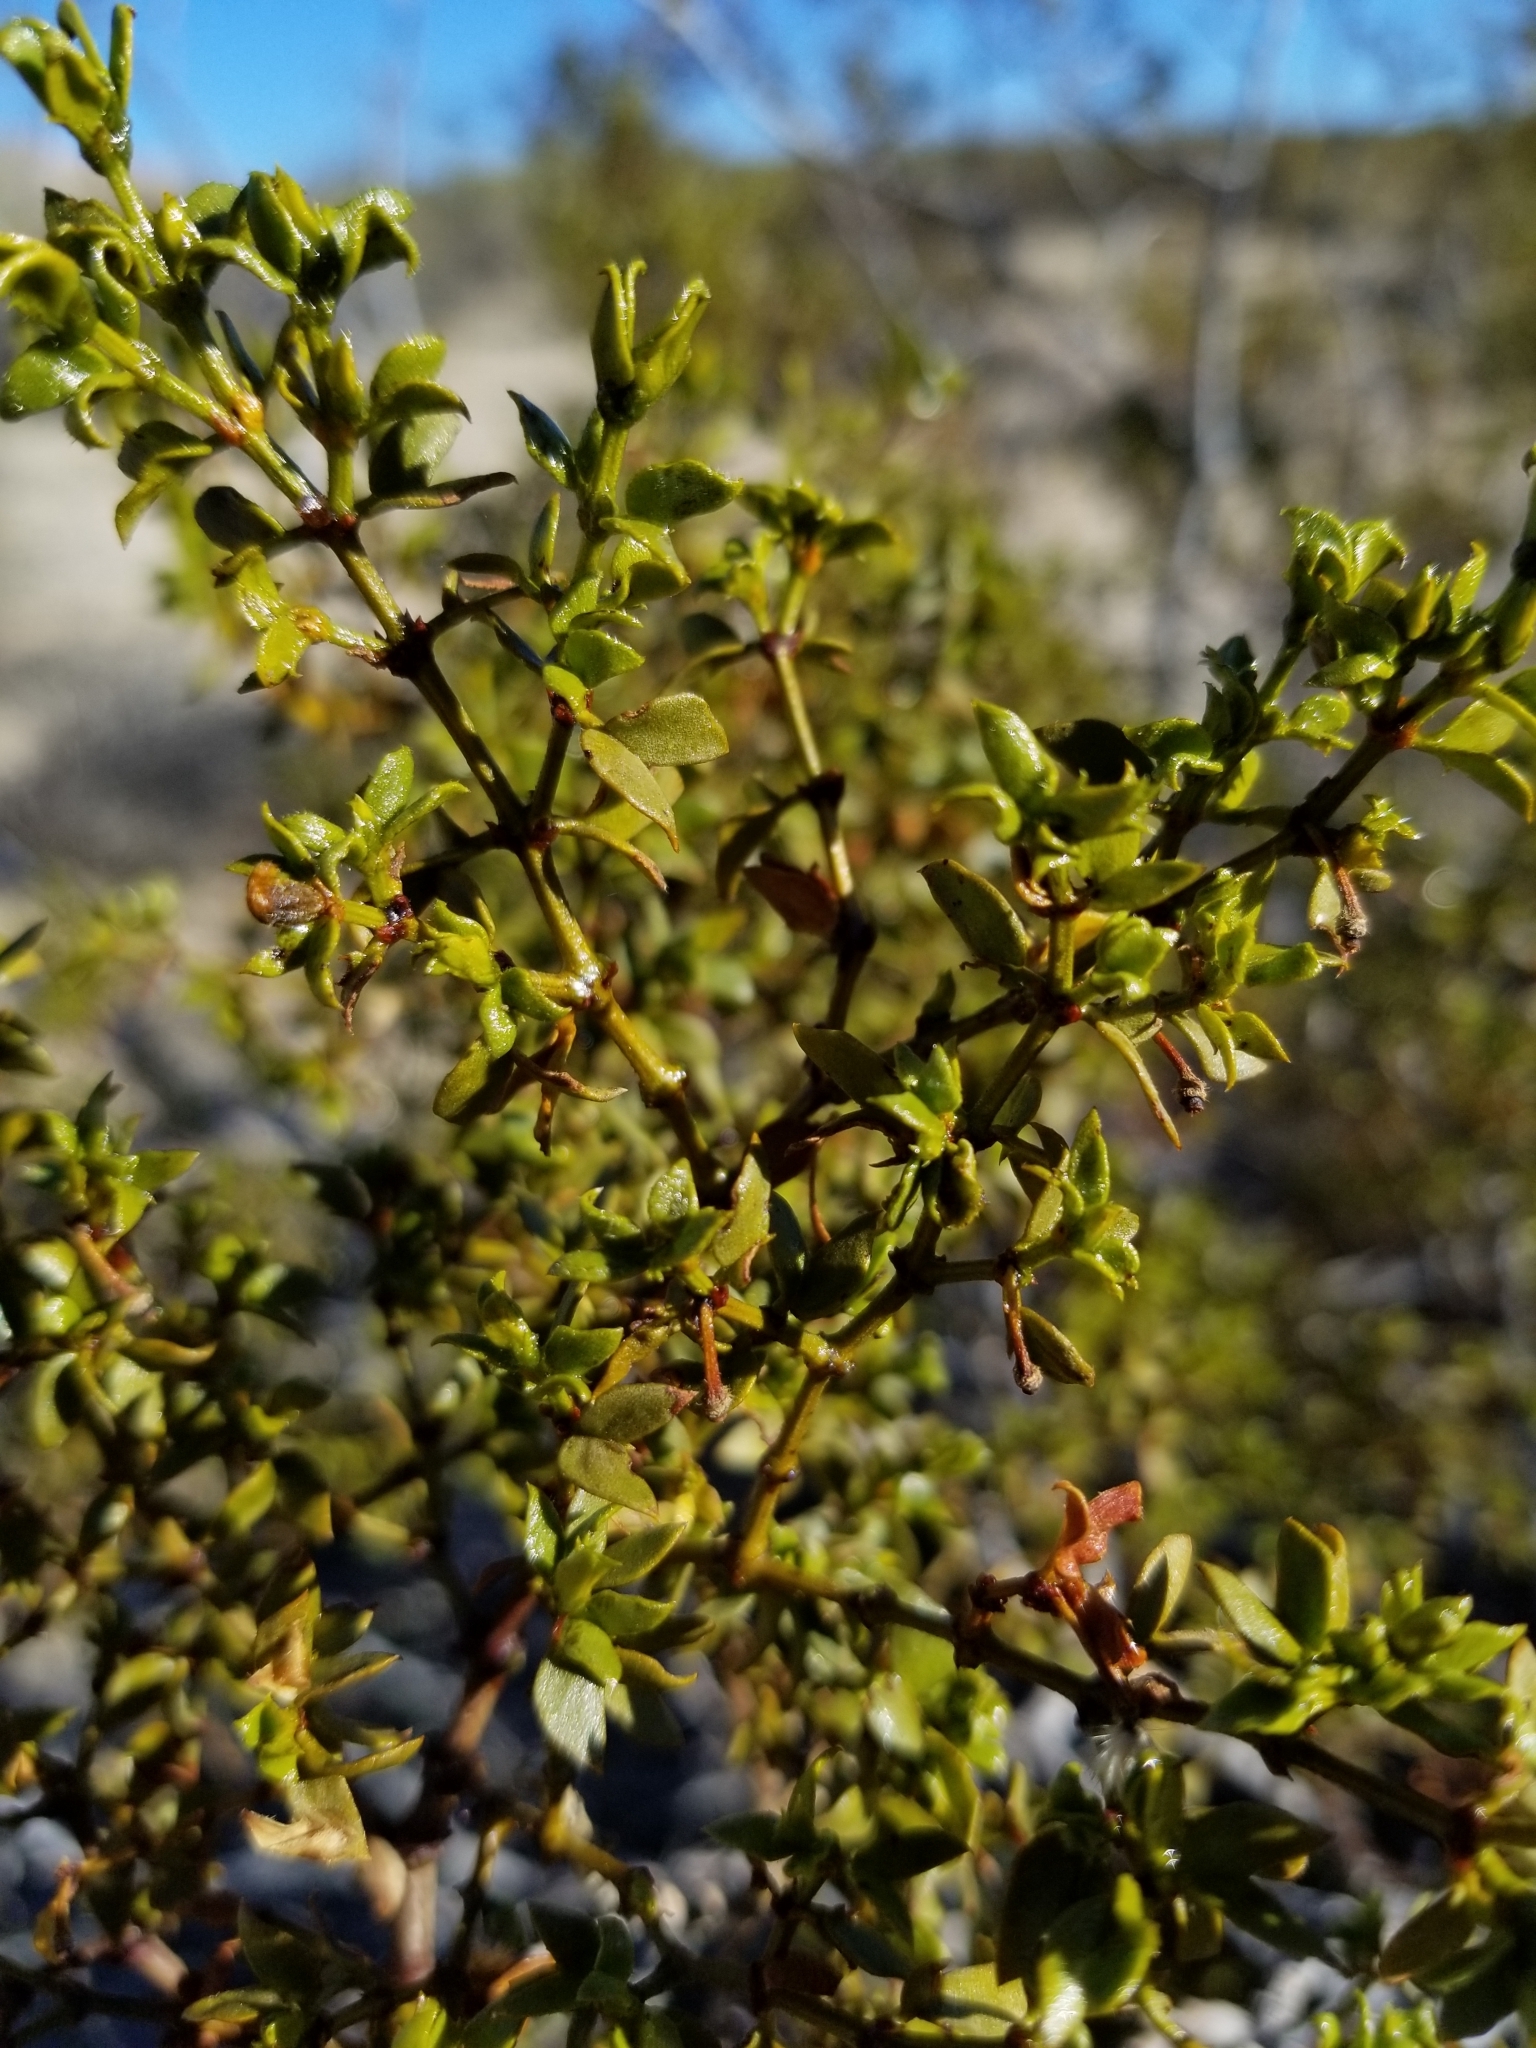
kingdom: Plantae
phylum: Tracheophyta
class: Magnoliopsida
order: Zygophyllales
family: Zygophyllaceae
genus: Larrea
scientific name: Larrea tridentata
